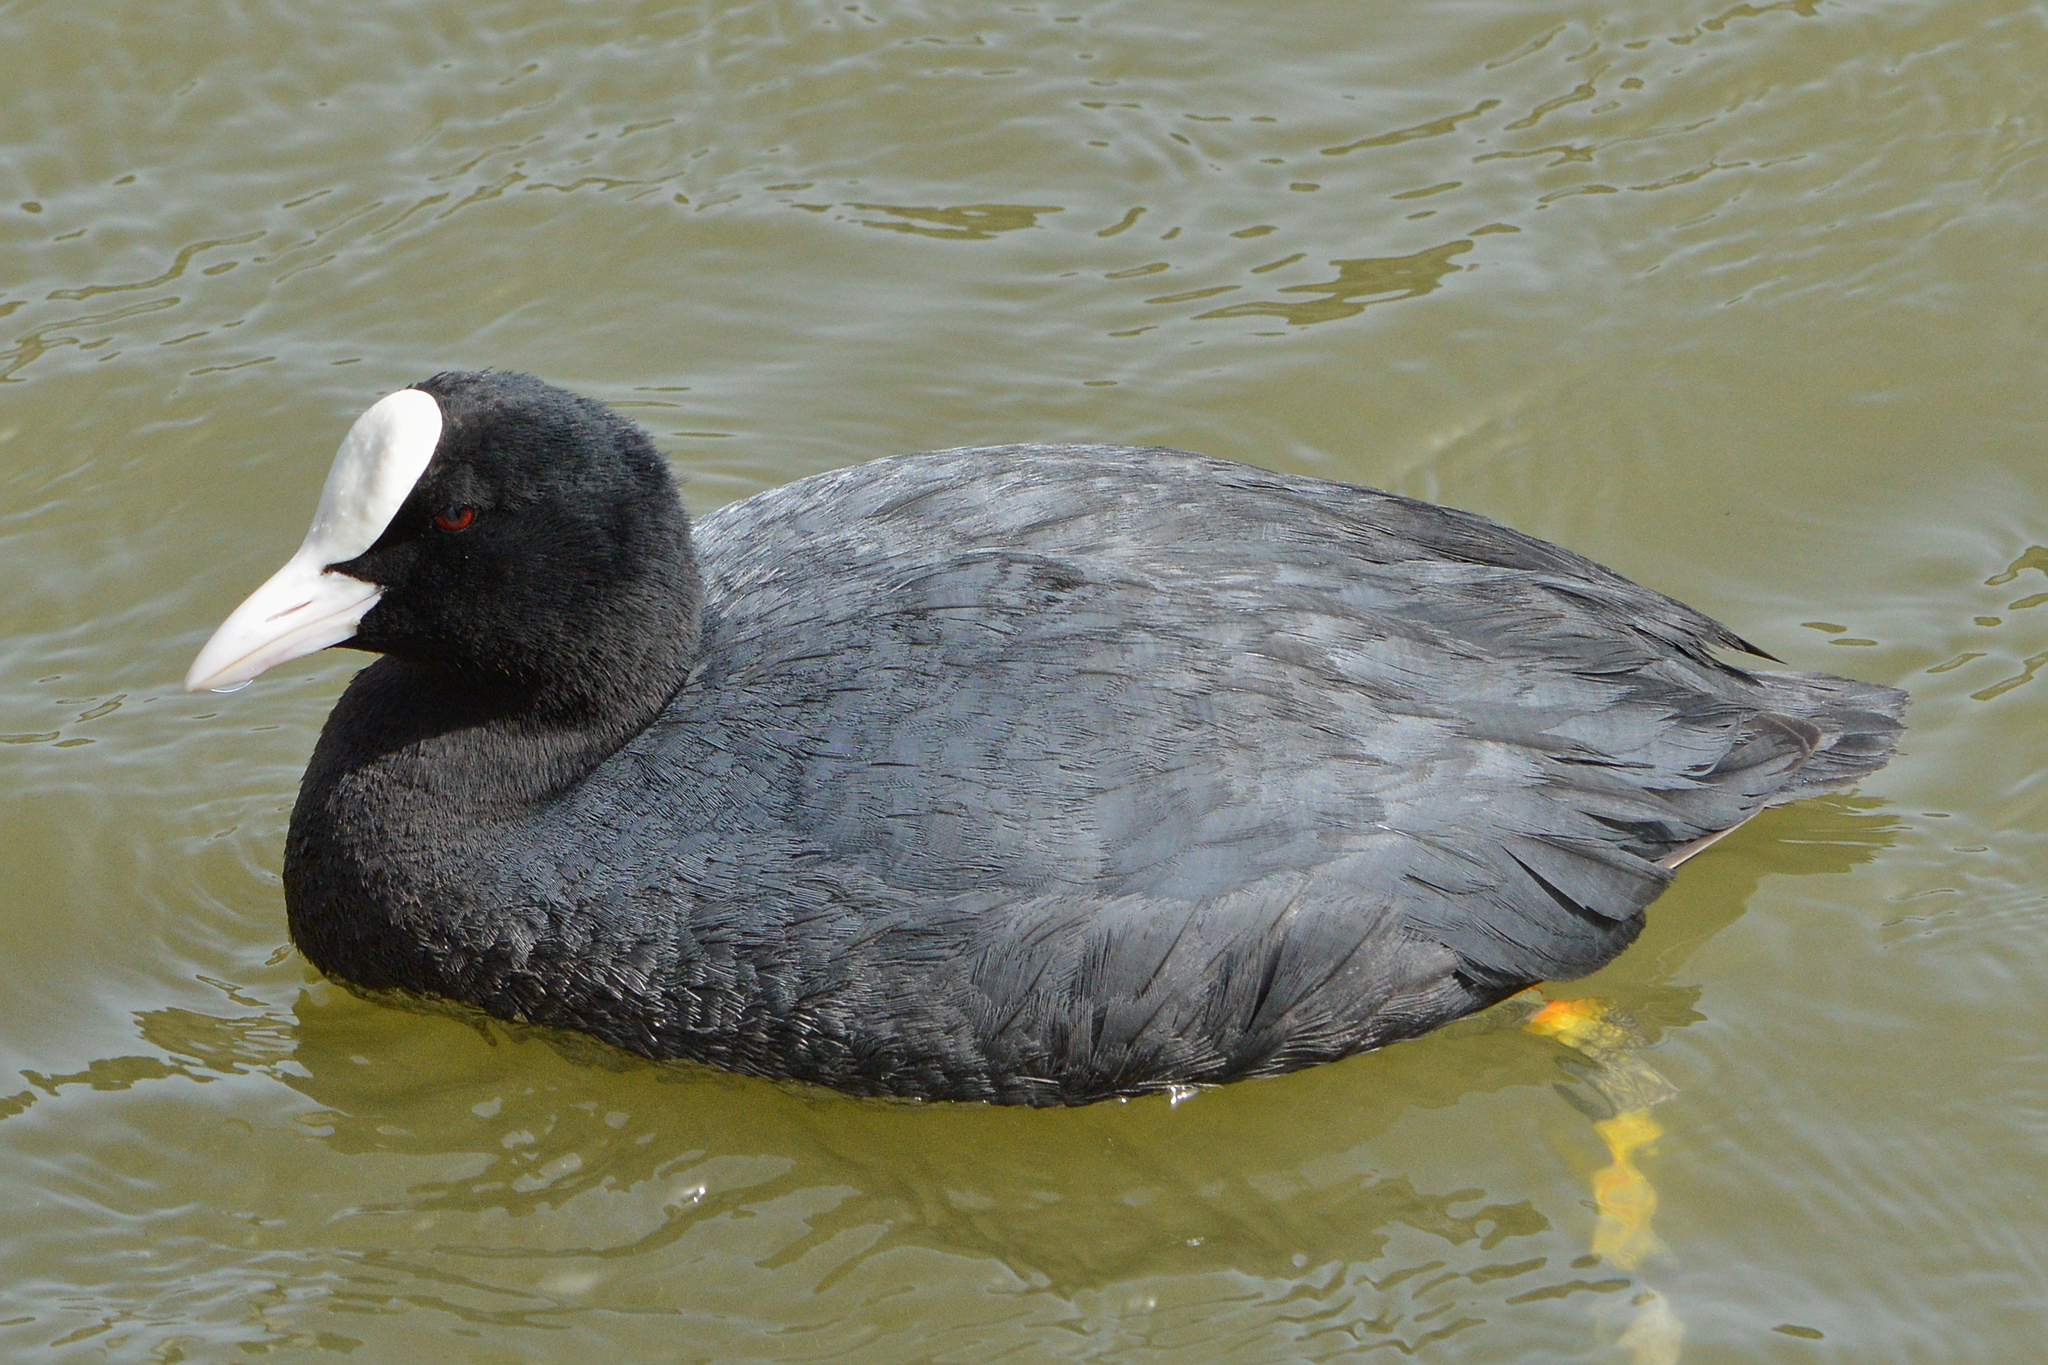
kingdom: Animalia
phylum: Chordata
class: Aves
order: Gruiformes
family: Rallidae
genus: Fulica
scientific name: Fulica atra
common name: Eurasian coot
